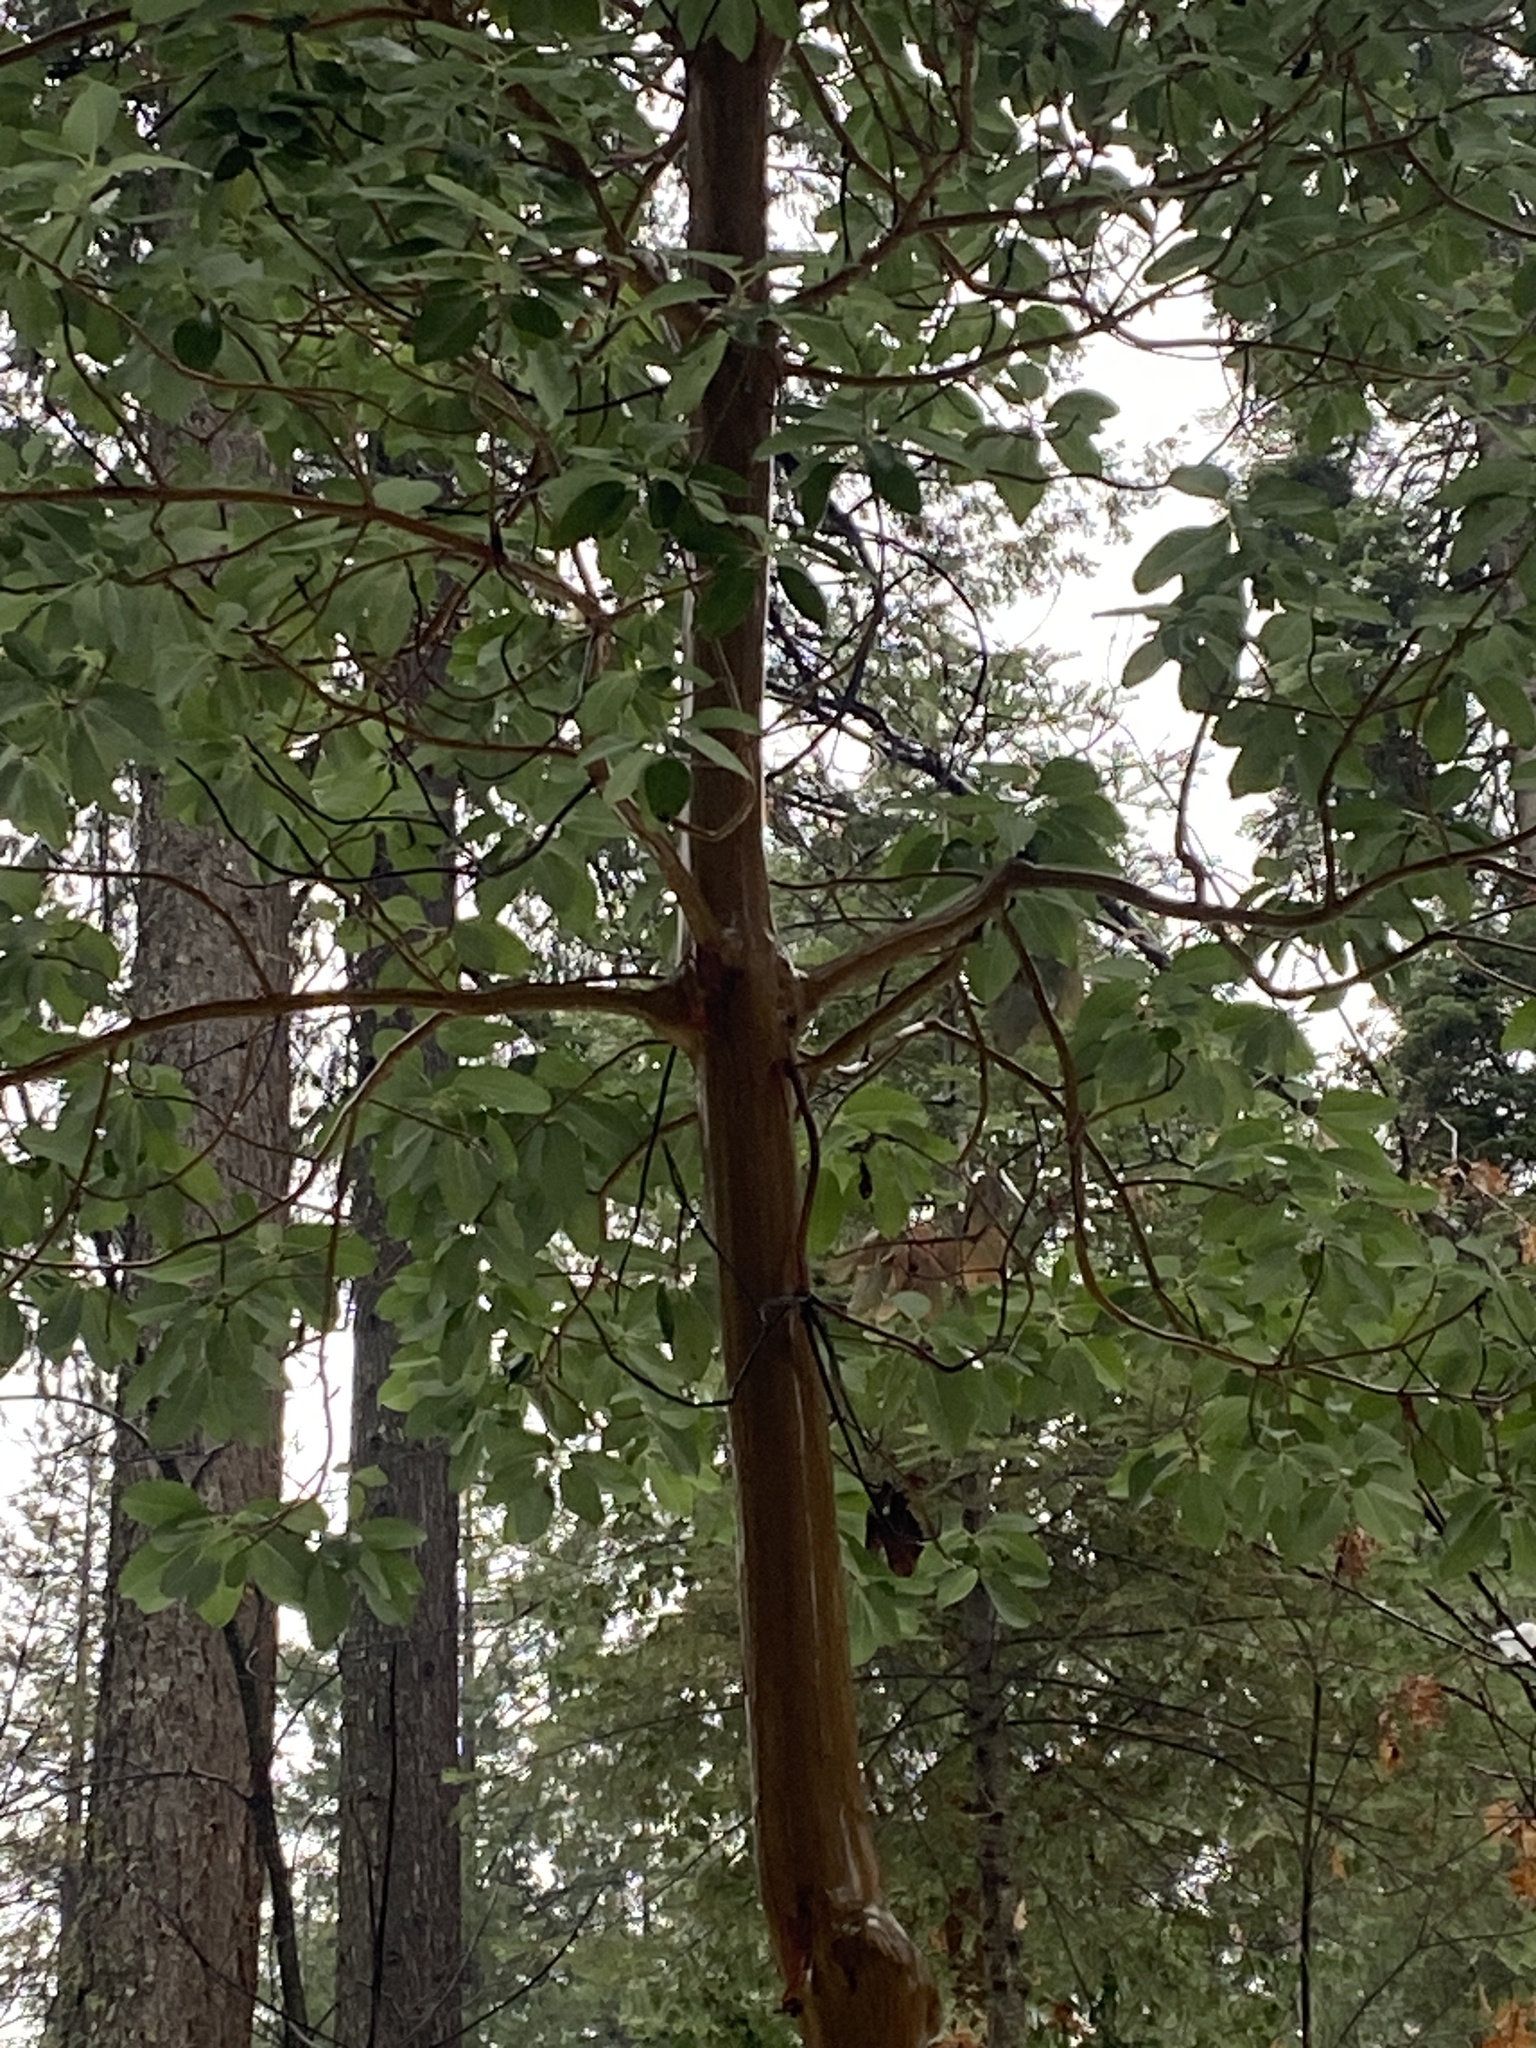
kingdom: Plantae
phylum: Tracheophyta
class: Magnoliopsida
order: Ericales
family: Ericaceae
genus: Arbutus
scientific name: Arbutus menziesii
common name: Pacific madrone
